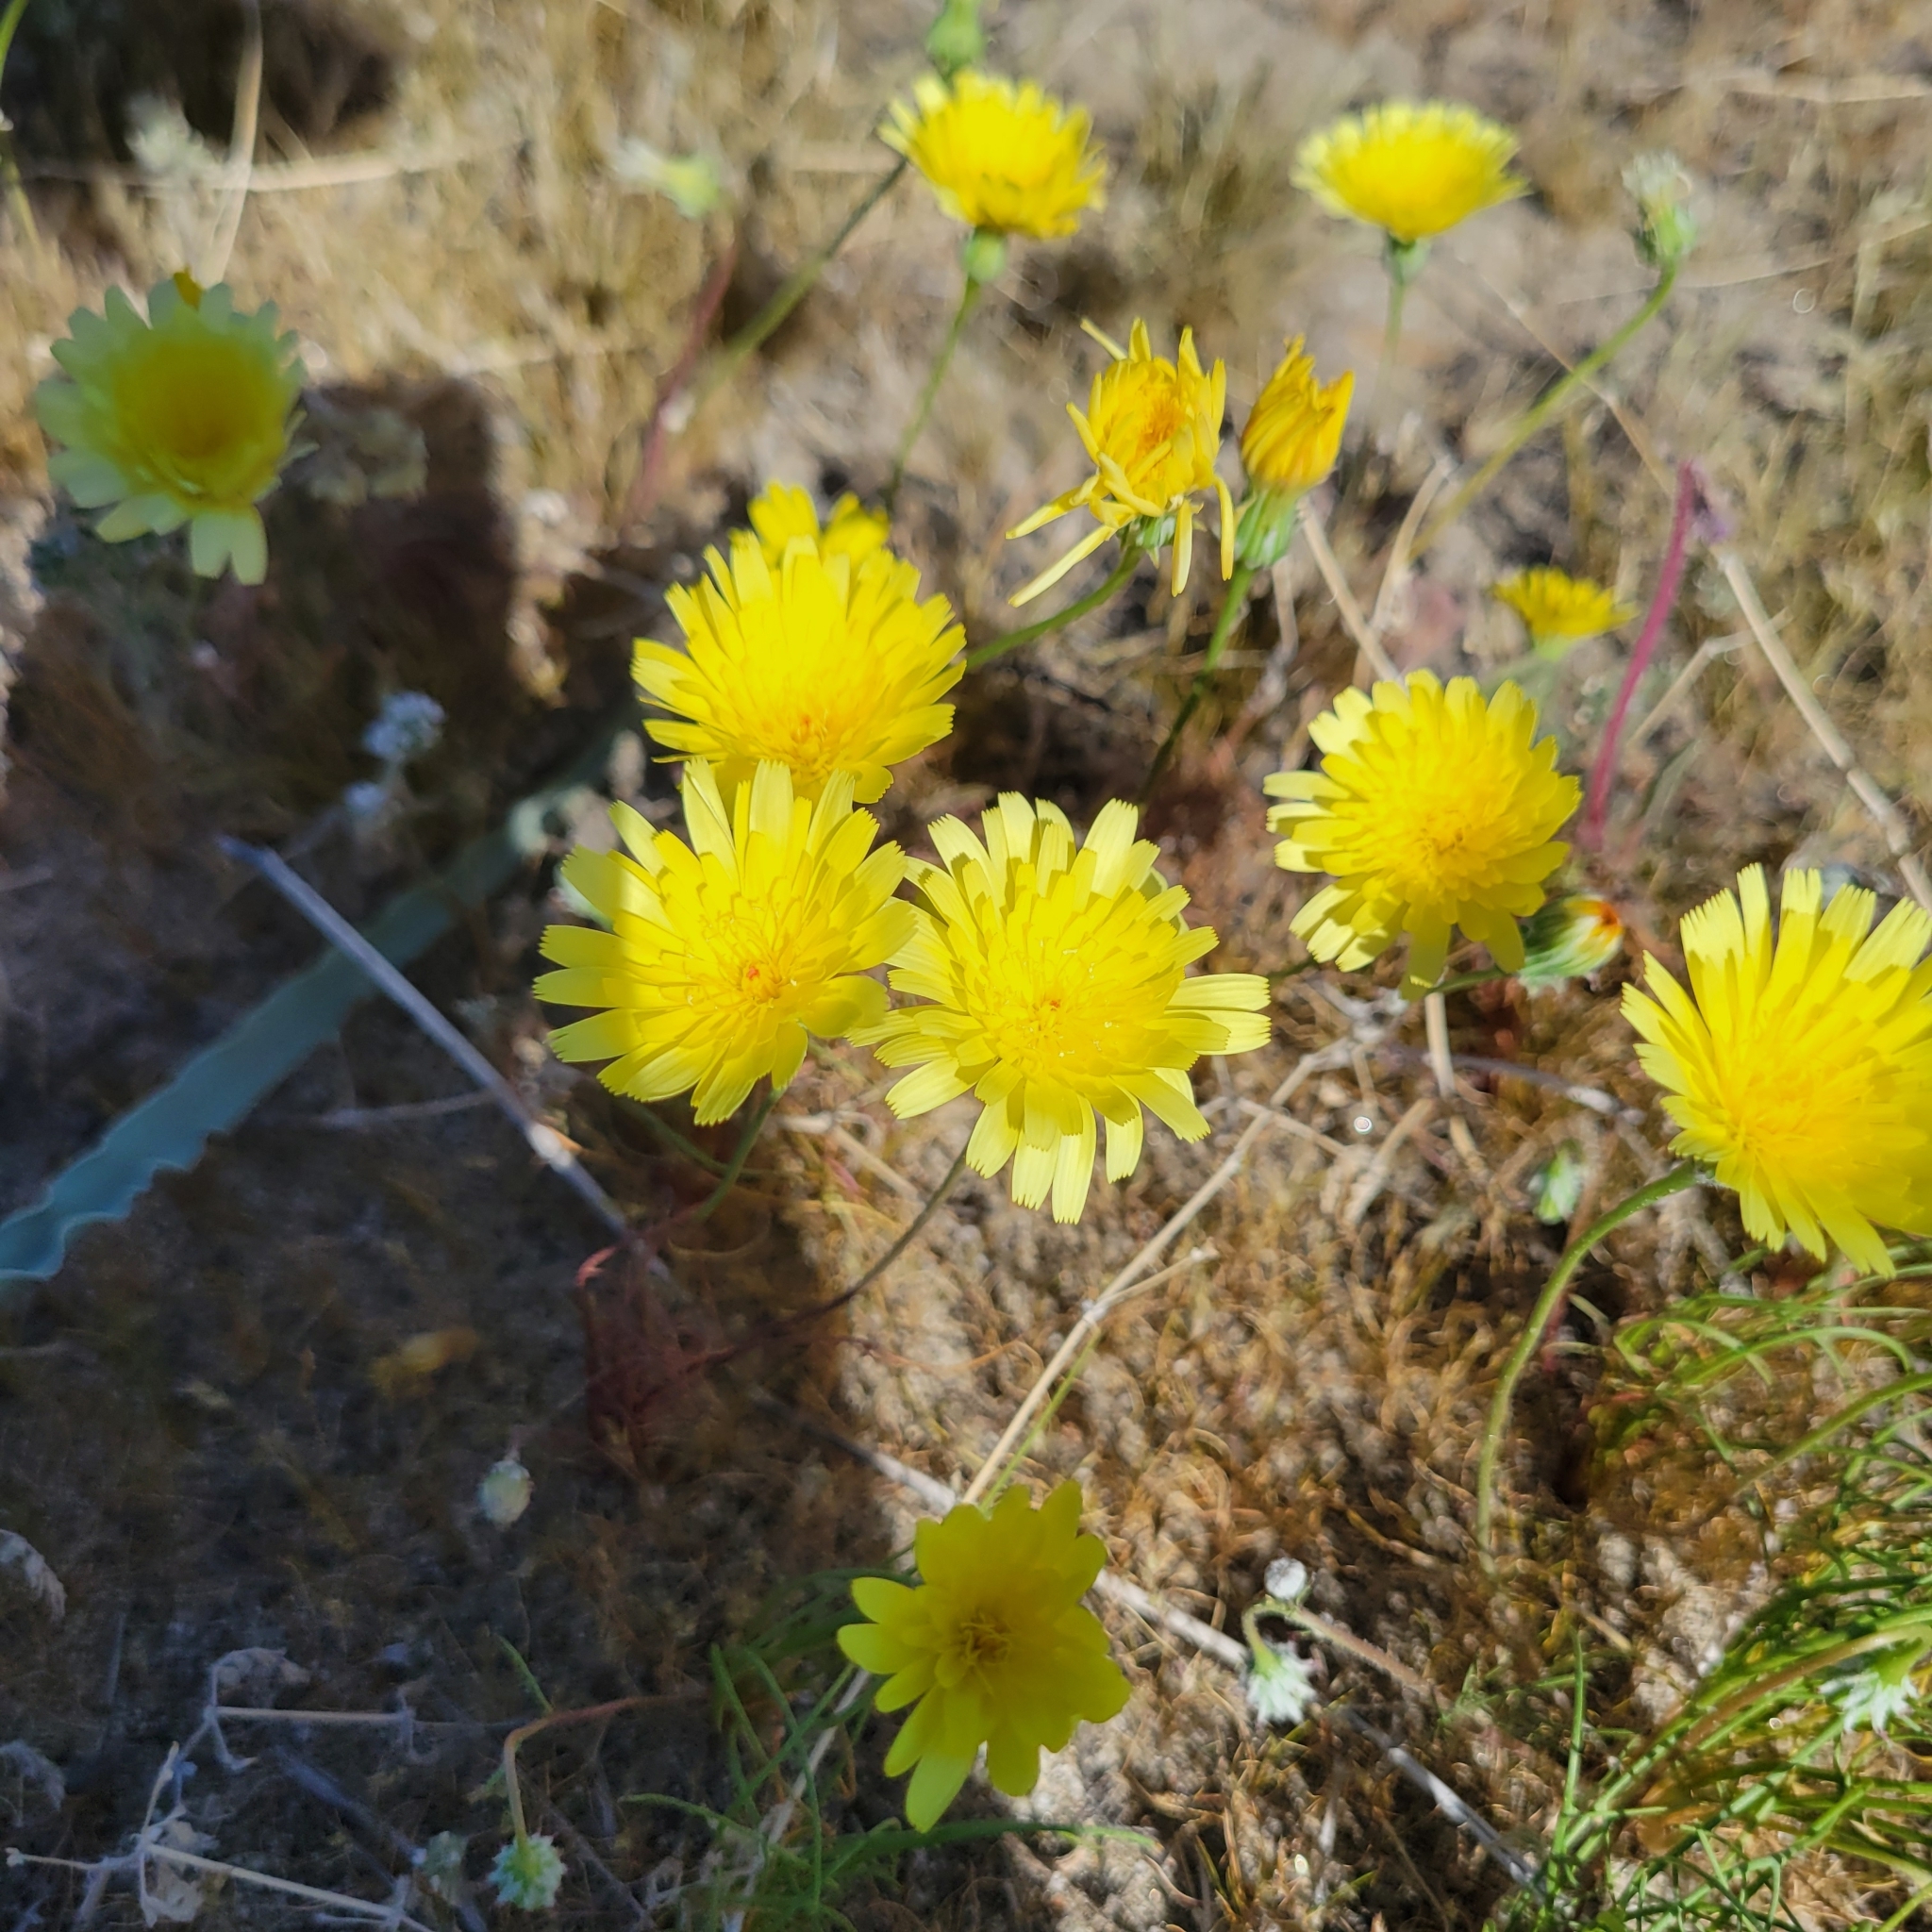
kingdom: Plantae
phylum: Tracheophyta
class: Magnoliopsida
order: Asterales
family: Asteraceae
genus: Malacothrix
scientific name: Malacothrix glabrata
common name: Smooth desert-dandelion
